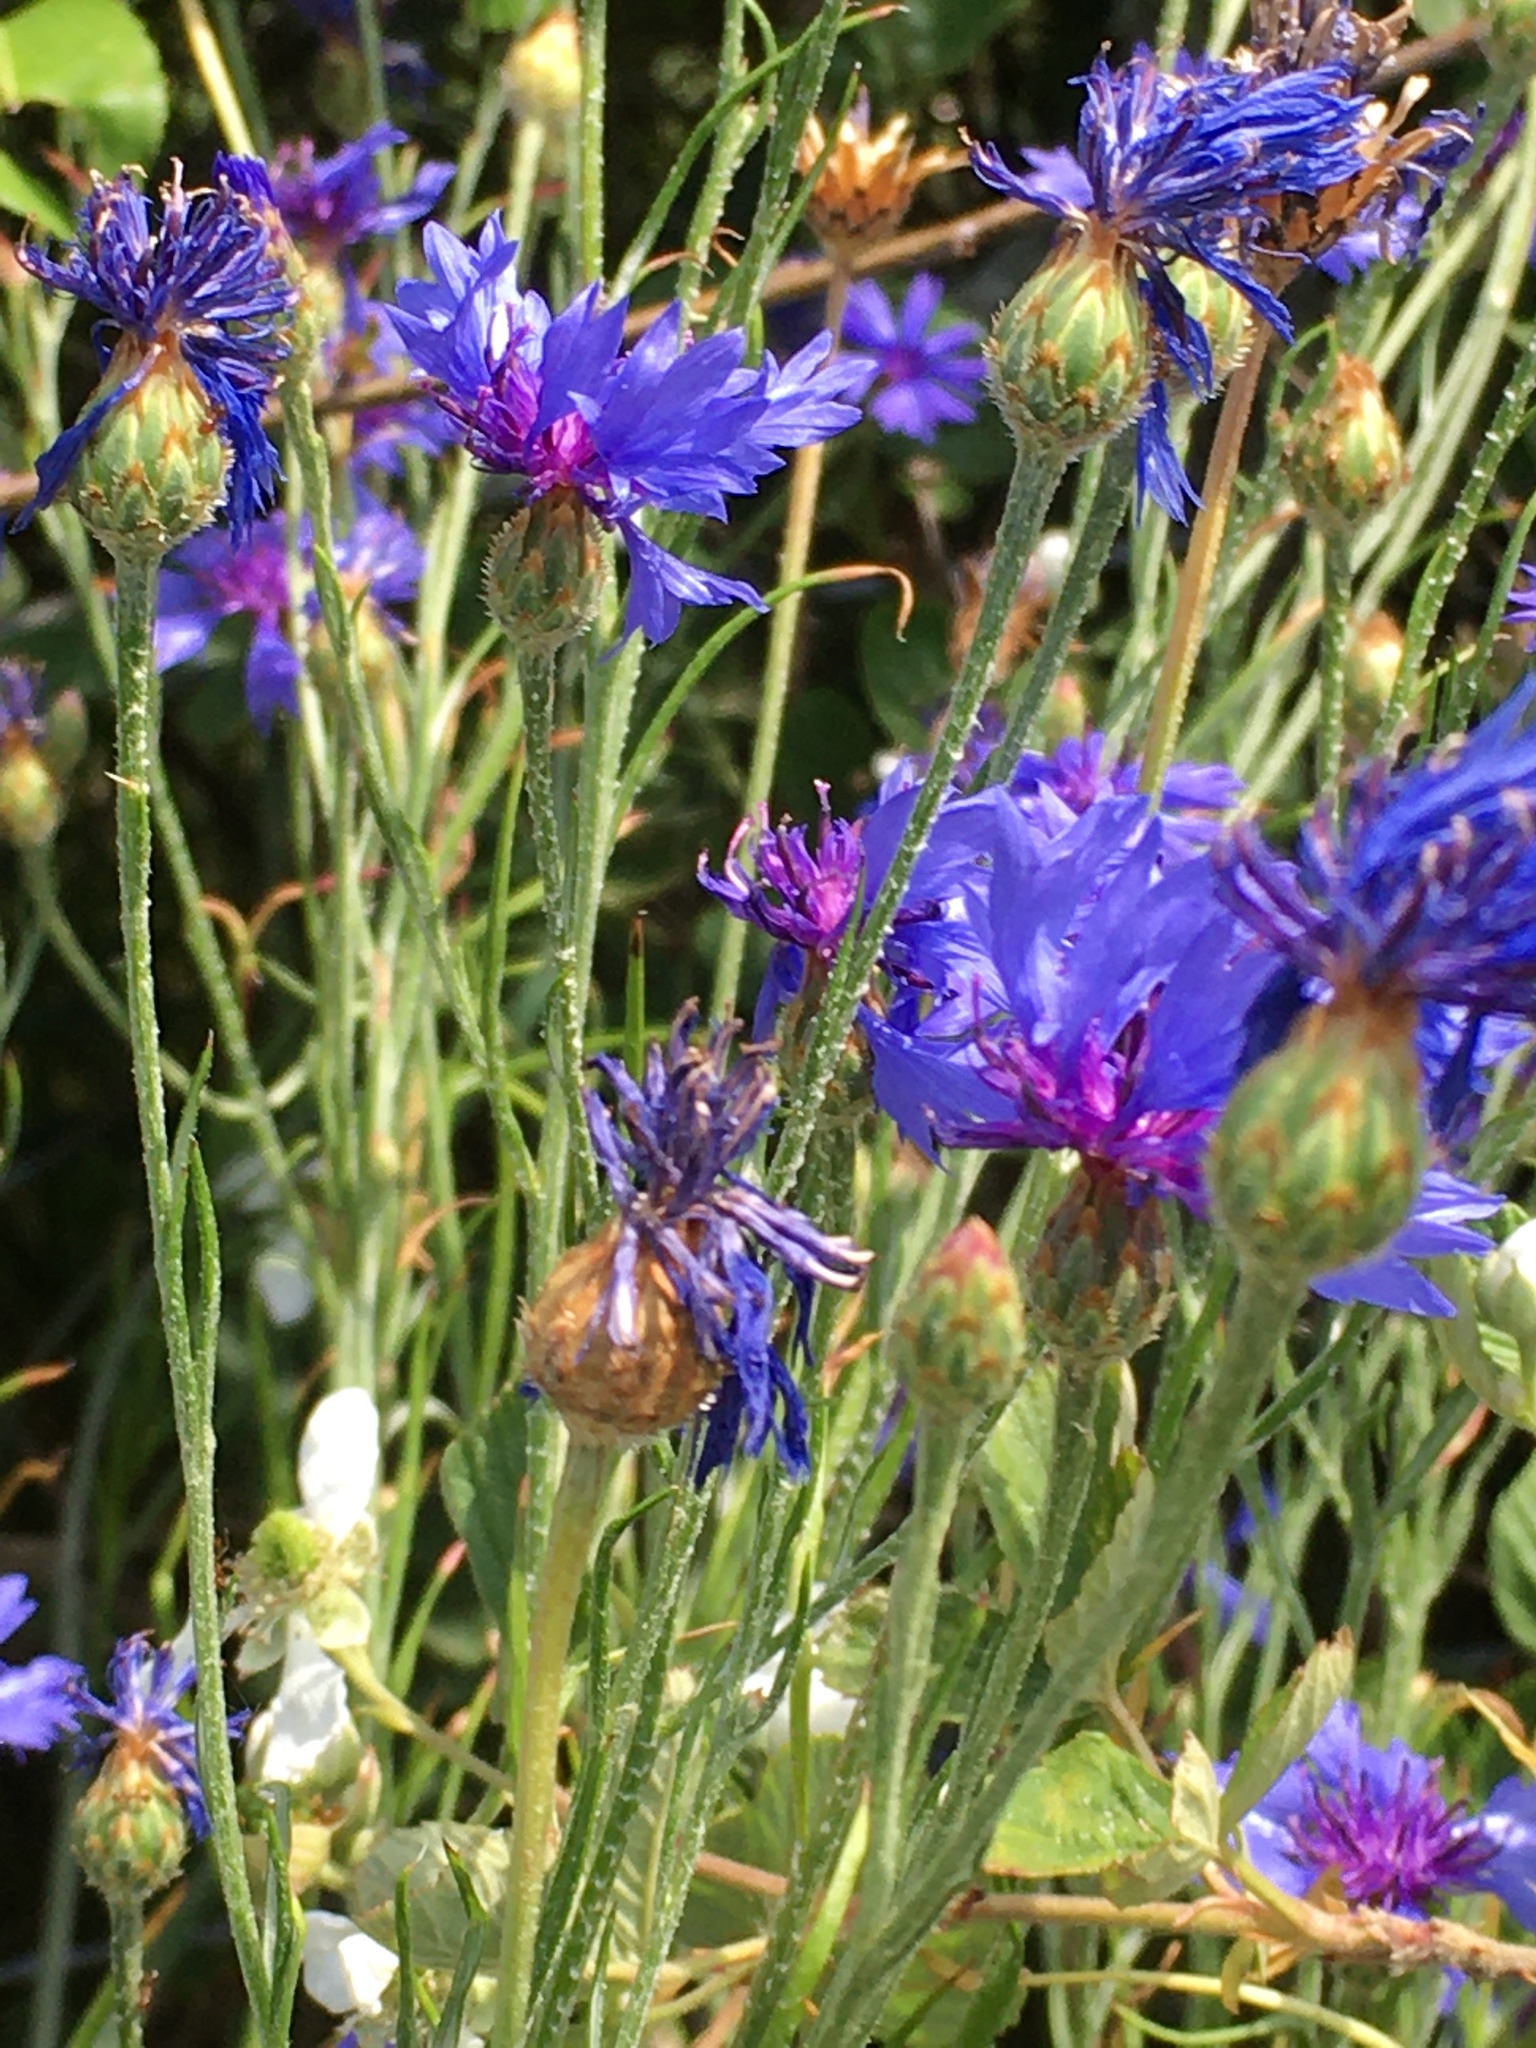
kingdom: Plantae
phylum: Tracheophyta
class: Magnoliopsida
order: Asterales
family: Asteraceae
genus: Centaurea
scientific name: Centaurea cyanus
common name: Cornflower
